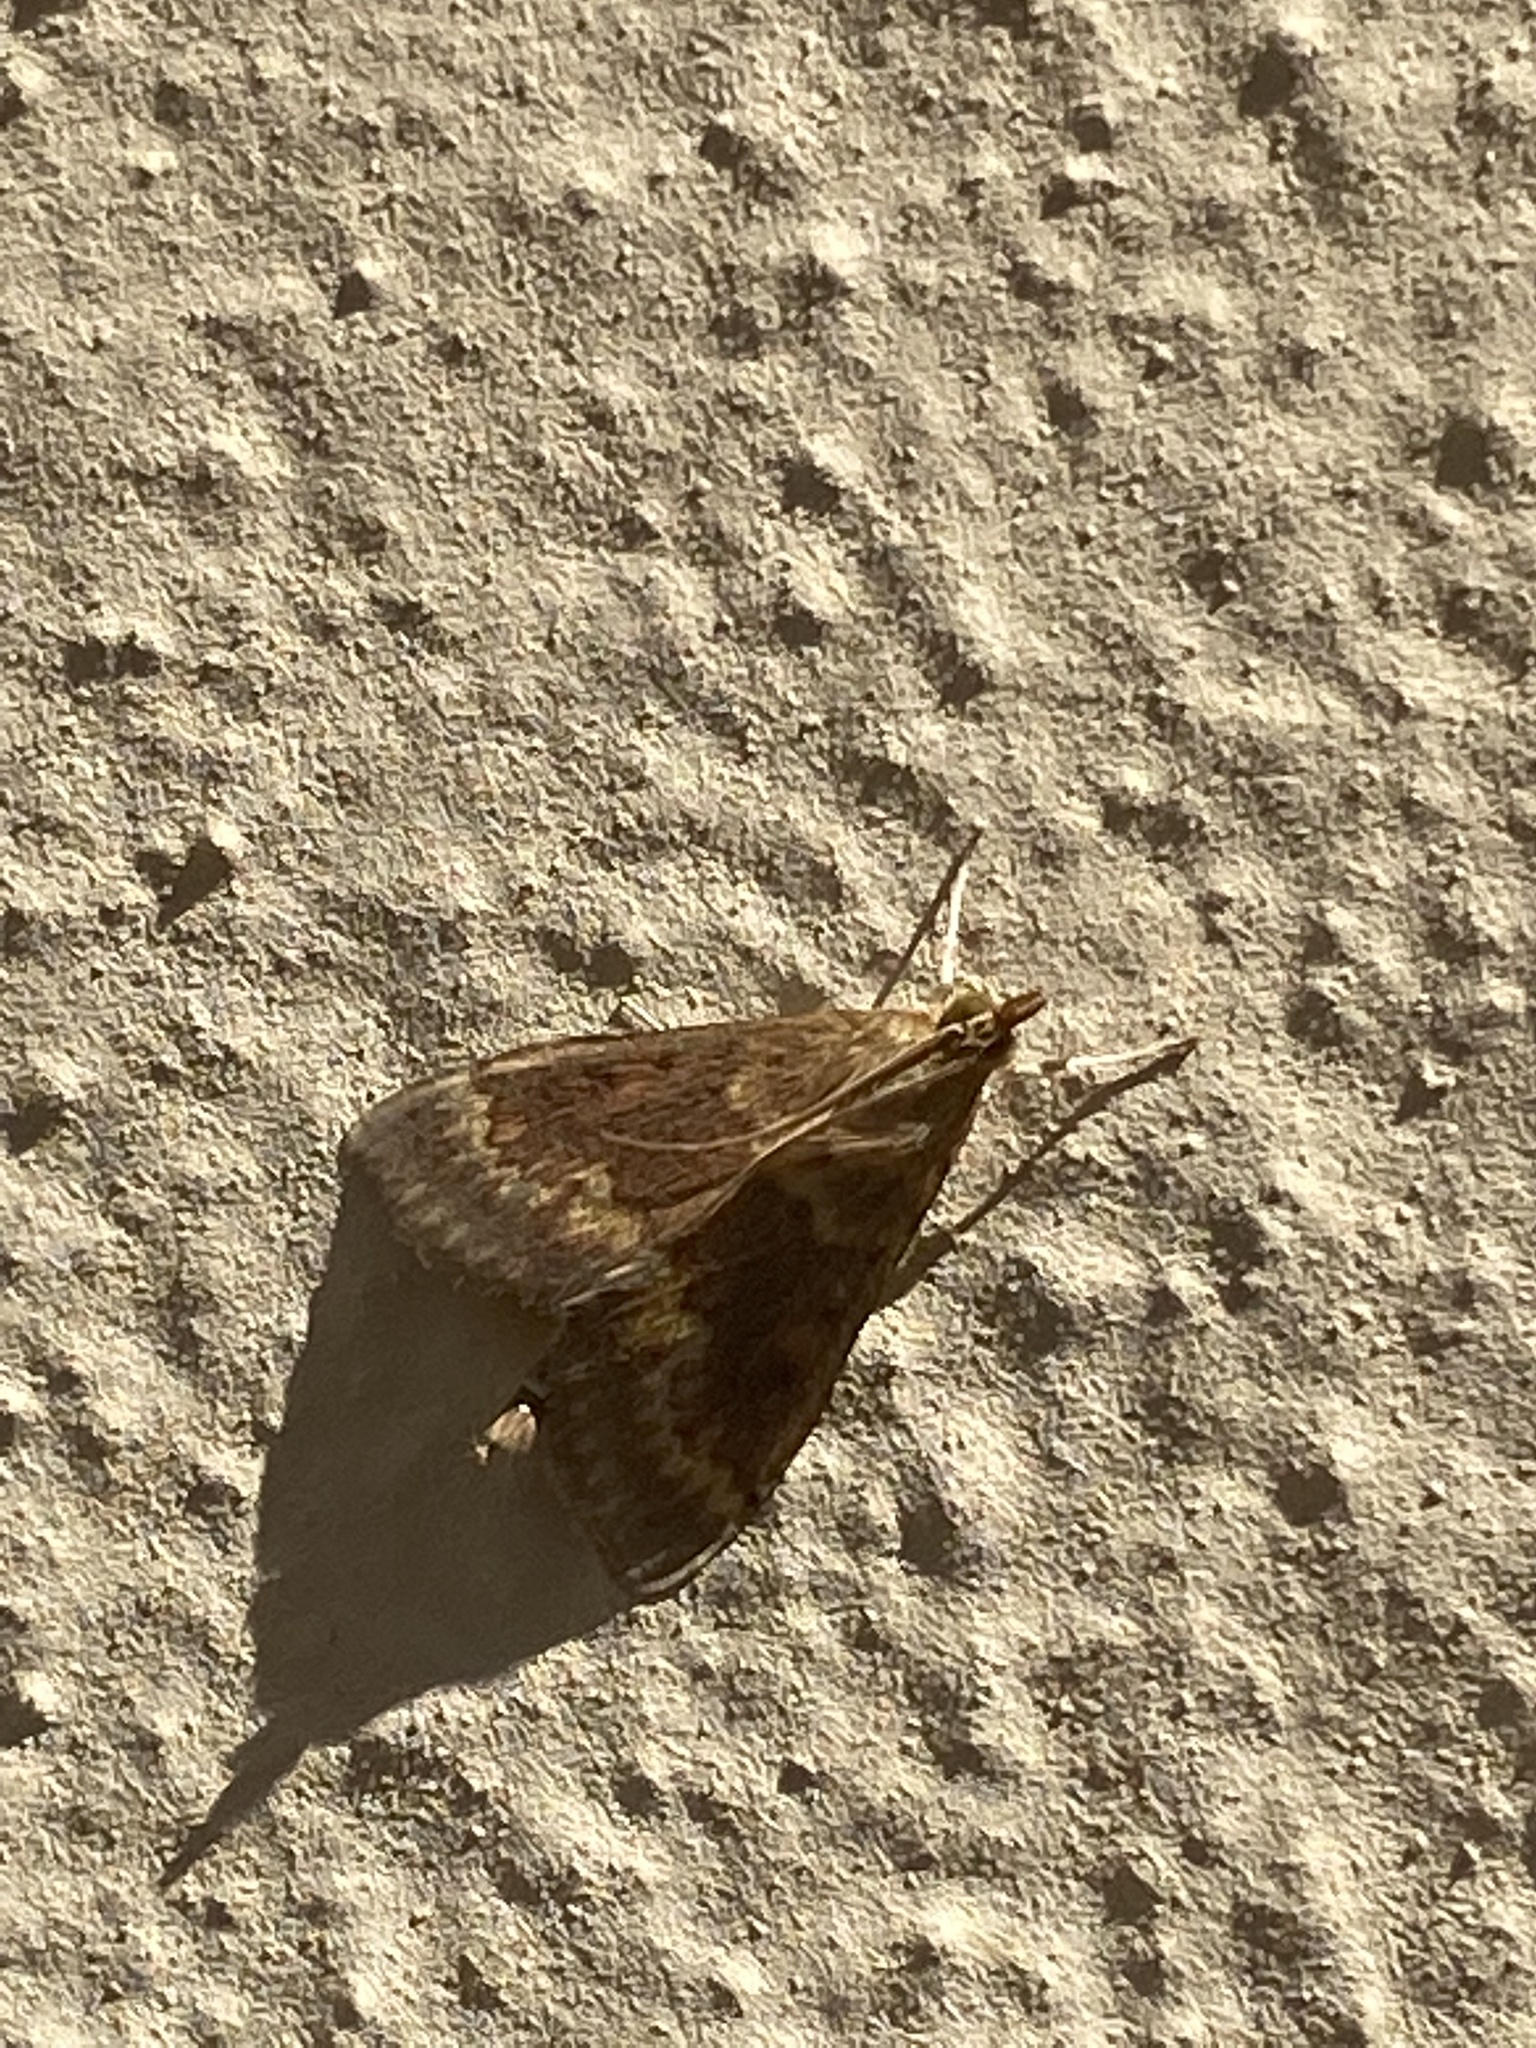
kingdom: Animalia
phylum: Arthropoda
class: Insecta
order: Lepidoptera
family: Crambidae
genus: Ostrinia
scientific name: Ostrinia nubilalis
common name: European corn borer
